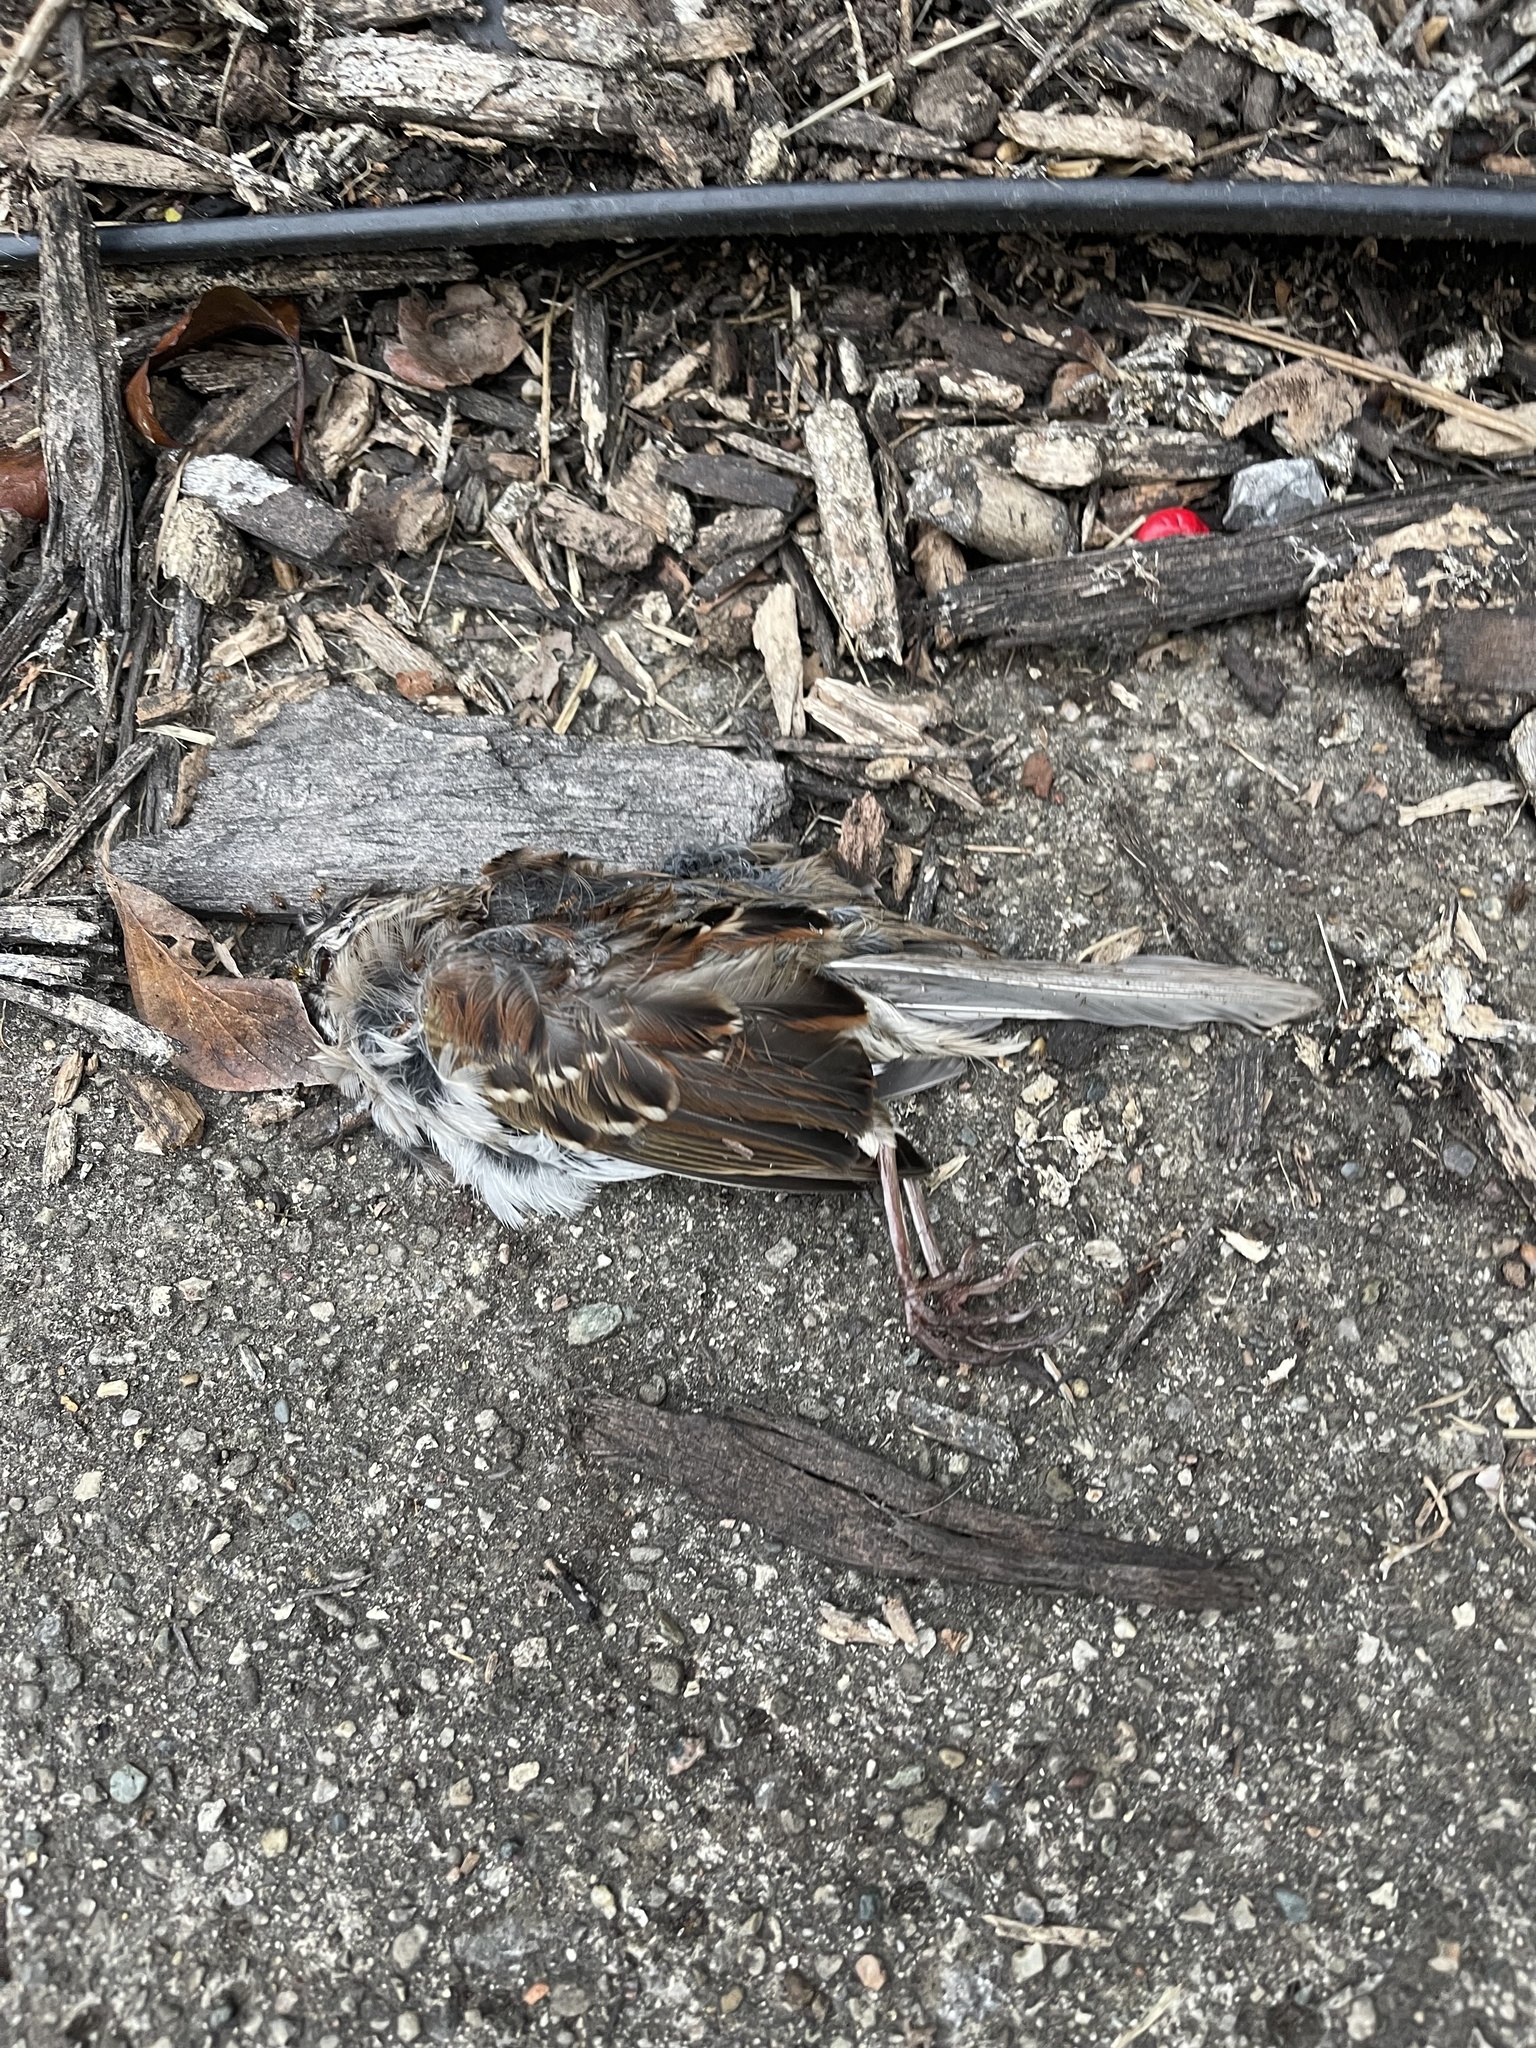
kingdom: Animalia
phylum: Chordata
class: Aves
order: Passeriformes
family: Passeridae
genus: Passer
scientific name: Passer domesticus
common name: House sparrow
